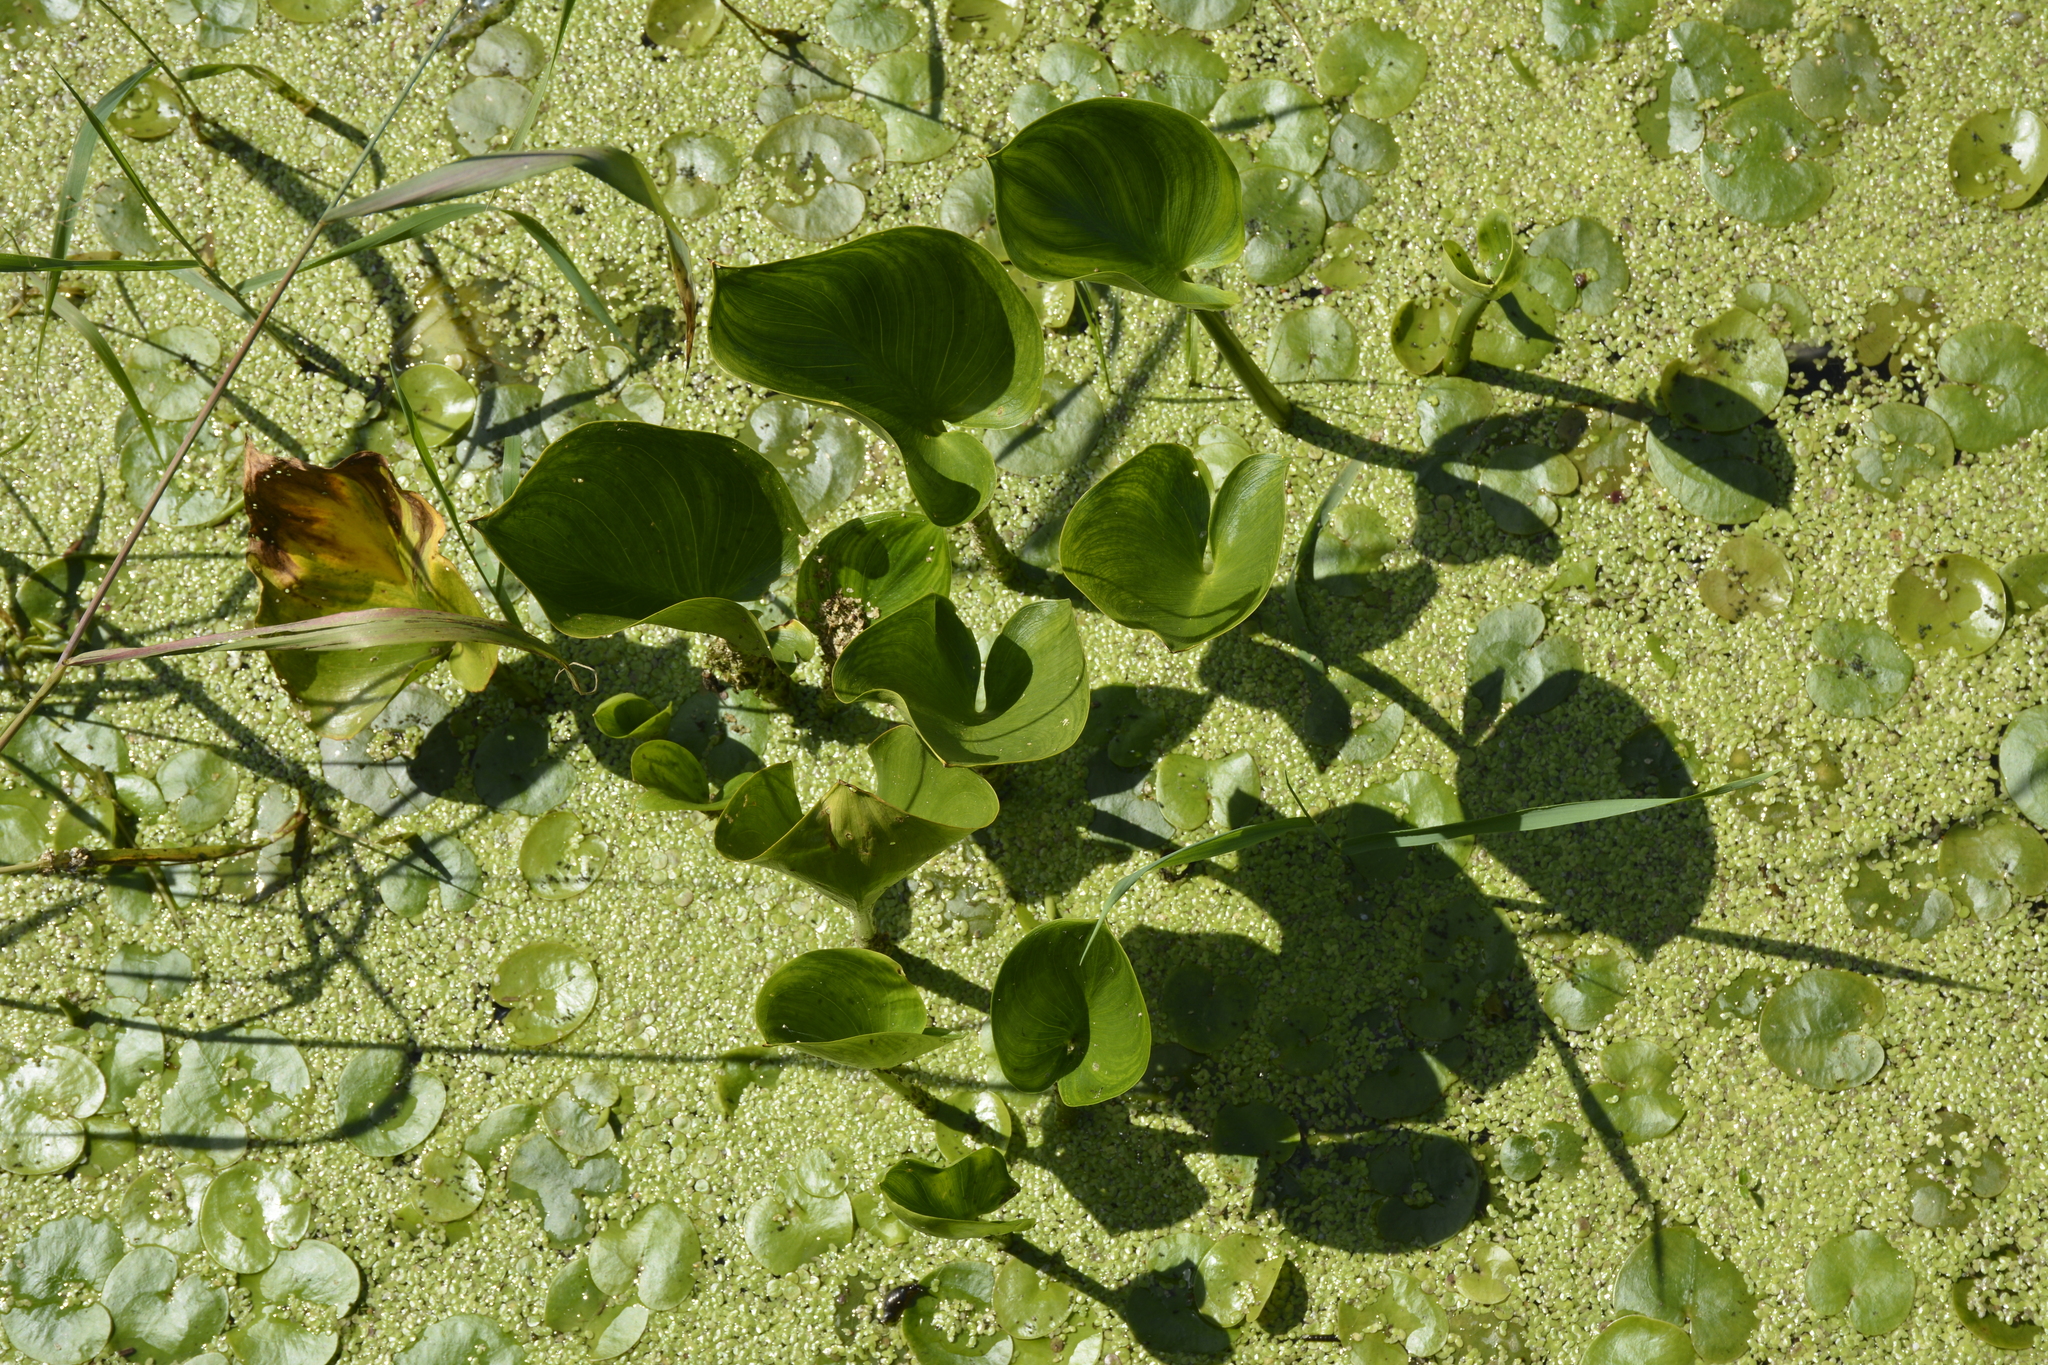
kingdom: Plantae
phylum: Tracheophyta
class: Liliopsida
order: Alismatales
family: Araceae
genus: Calla
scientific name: Calla palustris
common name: Bog arum
